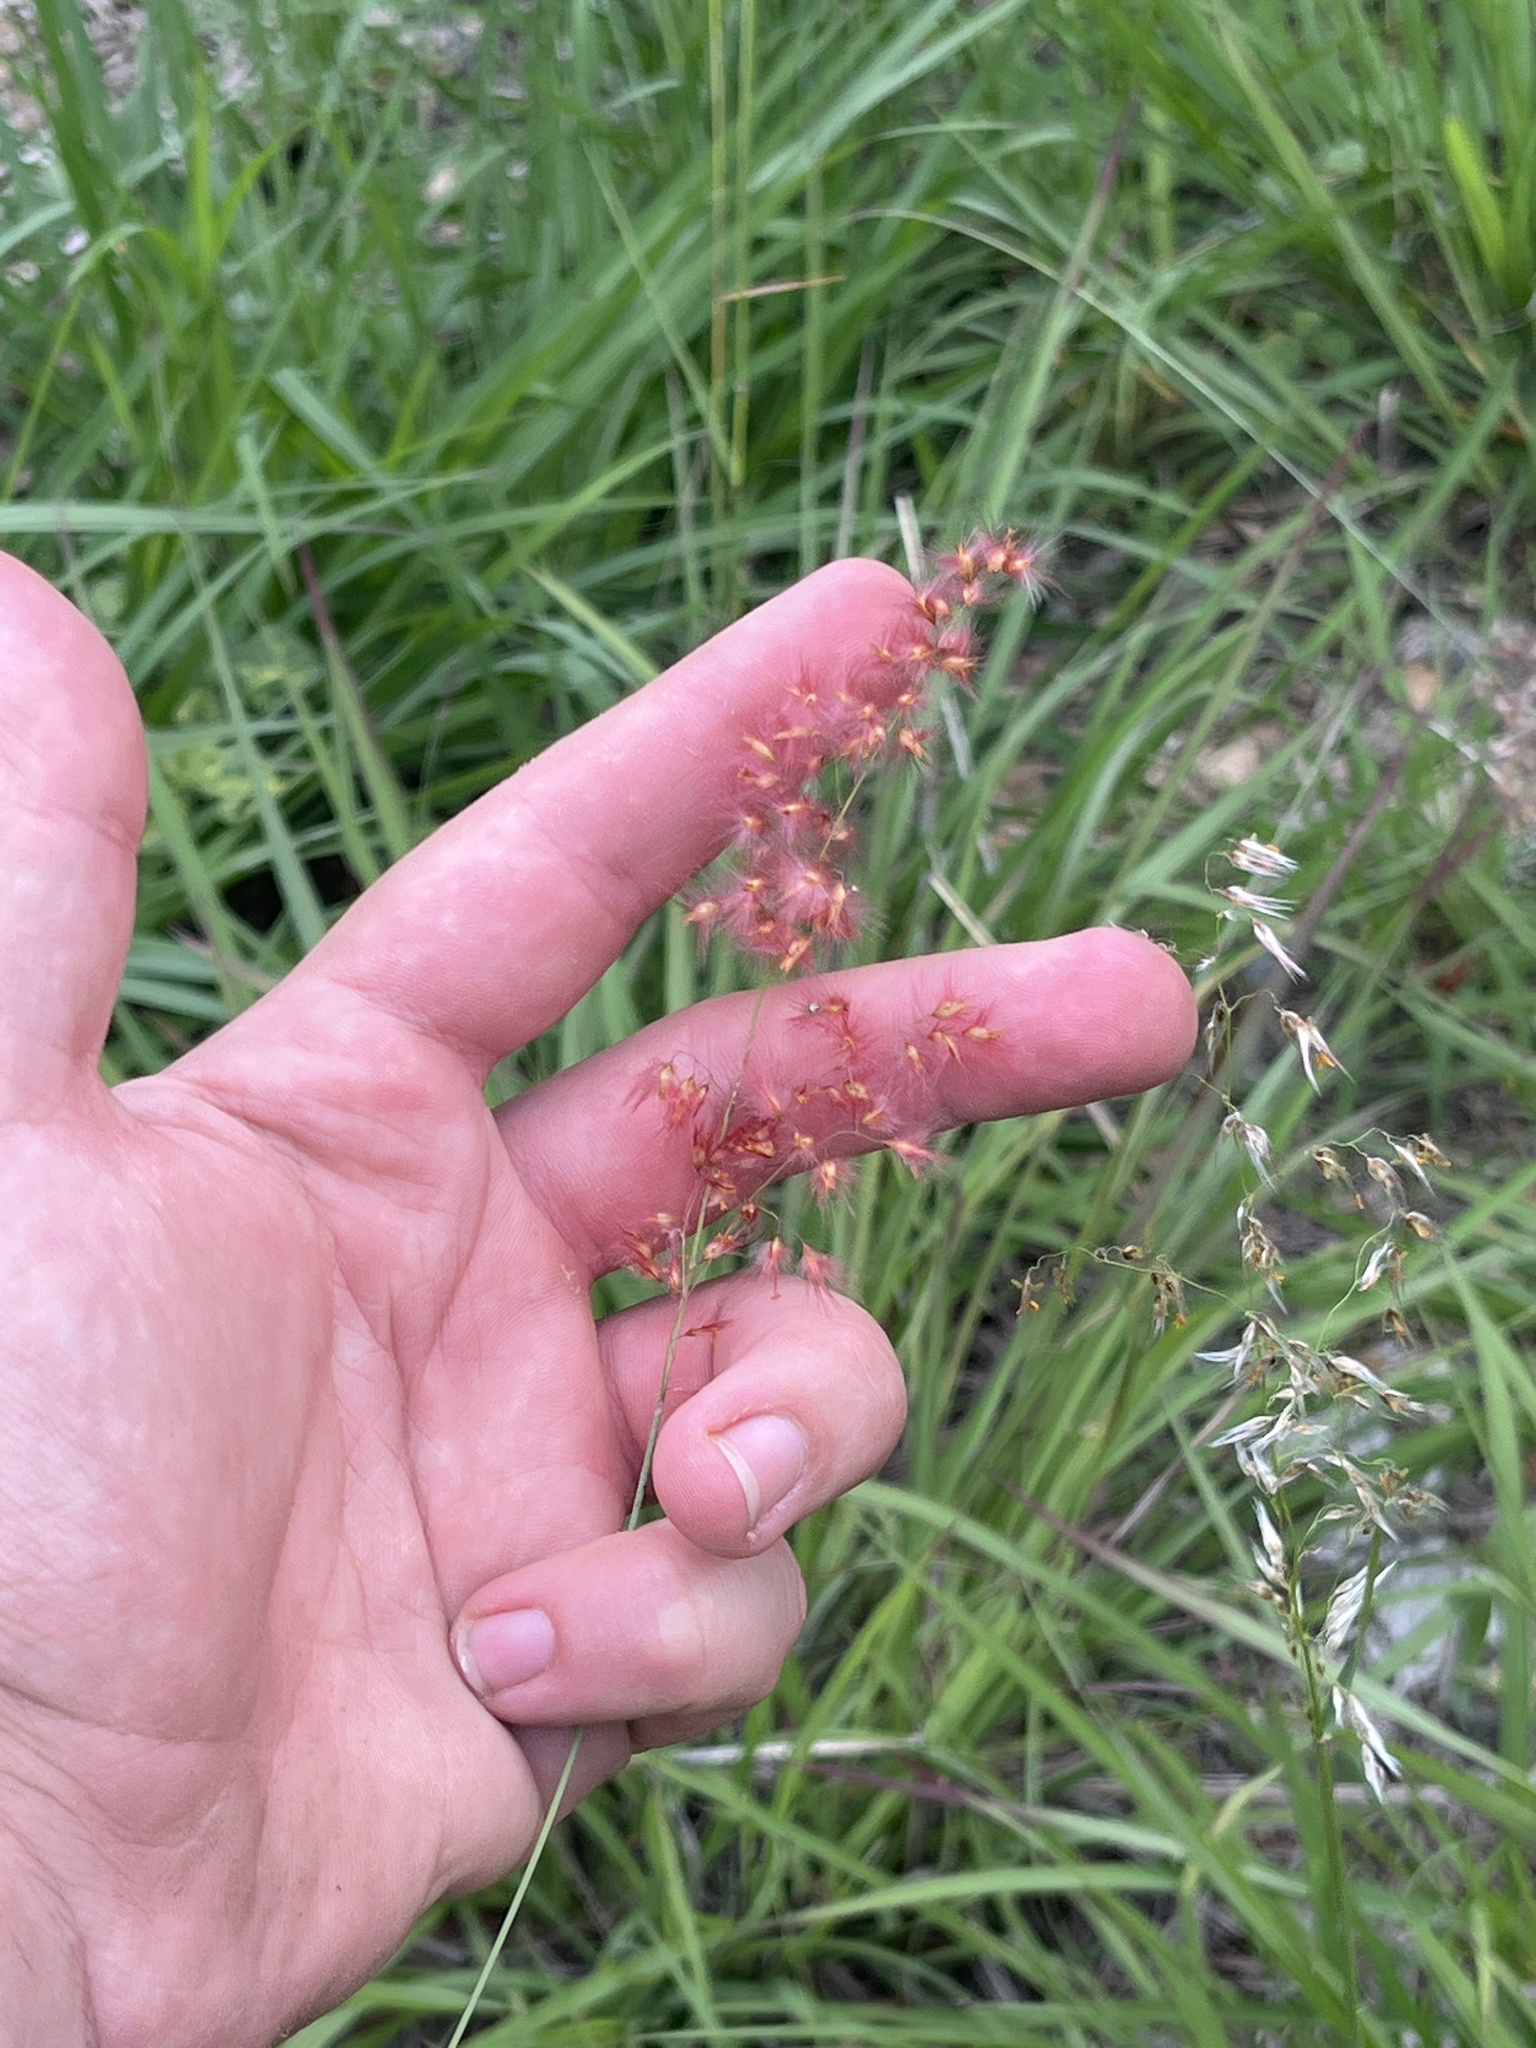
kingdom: Plantae
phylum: Tracheophyta
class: Liliopsida
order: Poales
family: Poaceae
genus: Melinis
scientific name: Melinis repens
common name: Rose natal grass
